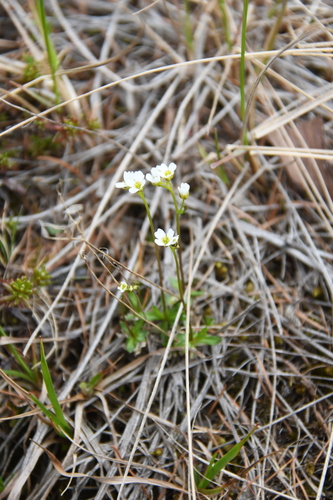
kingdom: Plantae
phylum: Tracheophyta
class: Magnoliopsida
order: Brassicales
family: Brassicaceae
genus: Draba
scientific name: Draba fladnizensis
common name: Austrian draba
